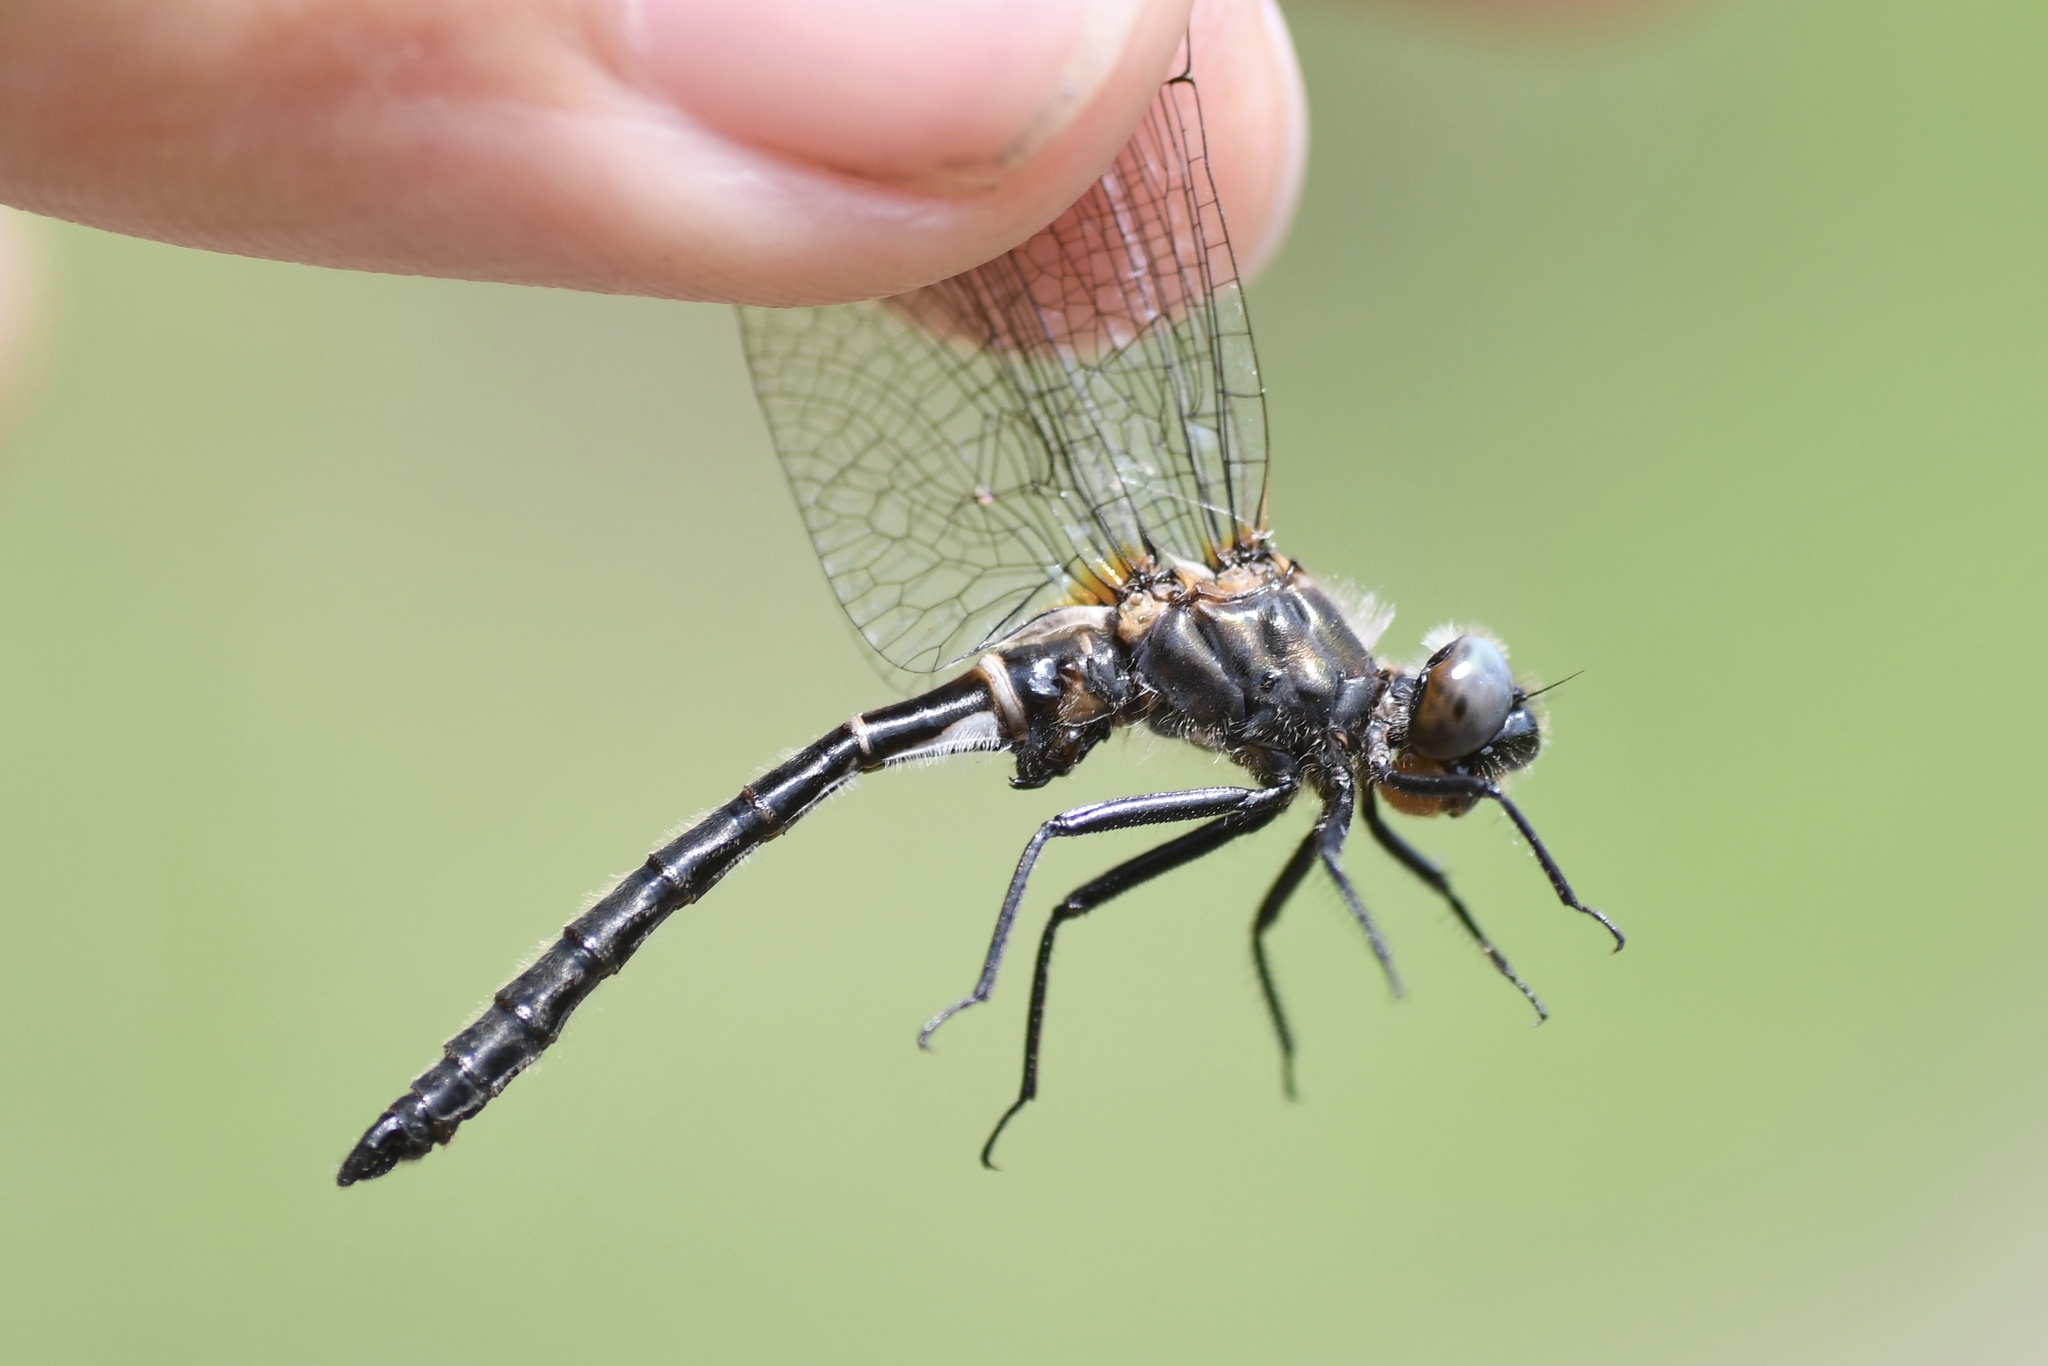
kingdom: Animalia
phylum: Arthropoda
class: Insecta
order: Odonata
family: Corduliidae
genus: Williamsonia
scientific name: Williamsonia fletcheri
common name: Ebony boghaunter
